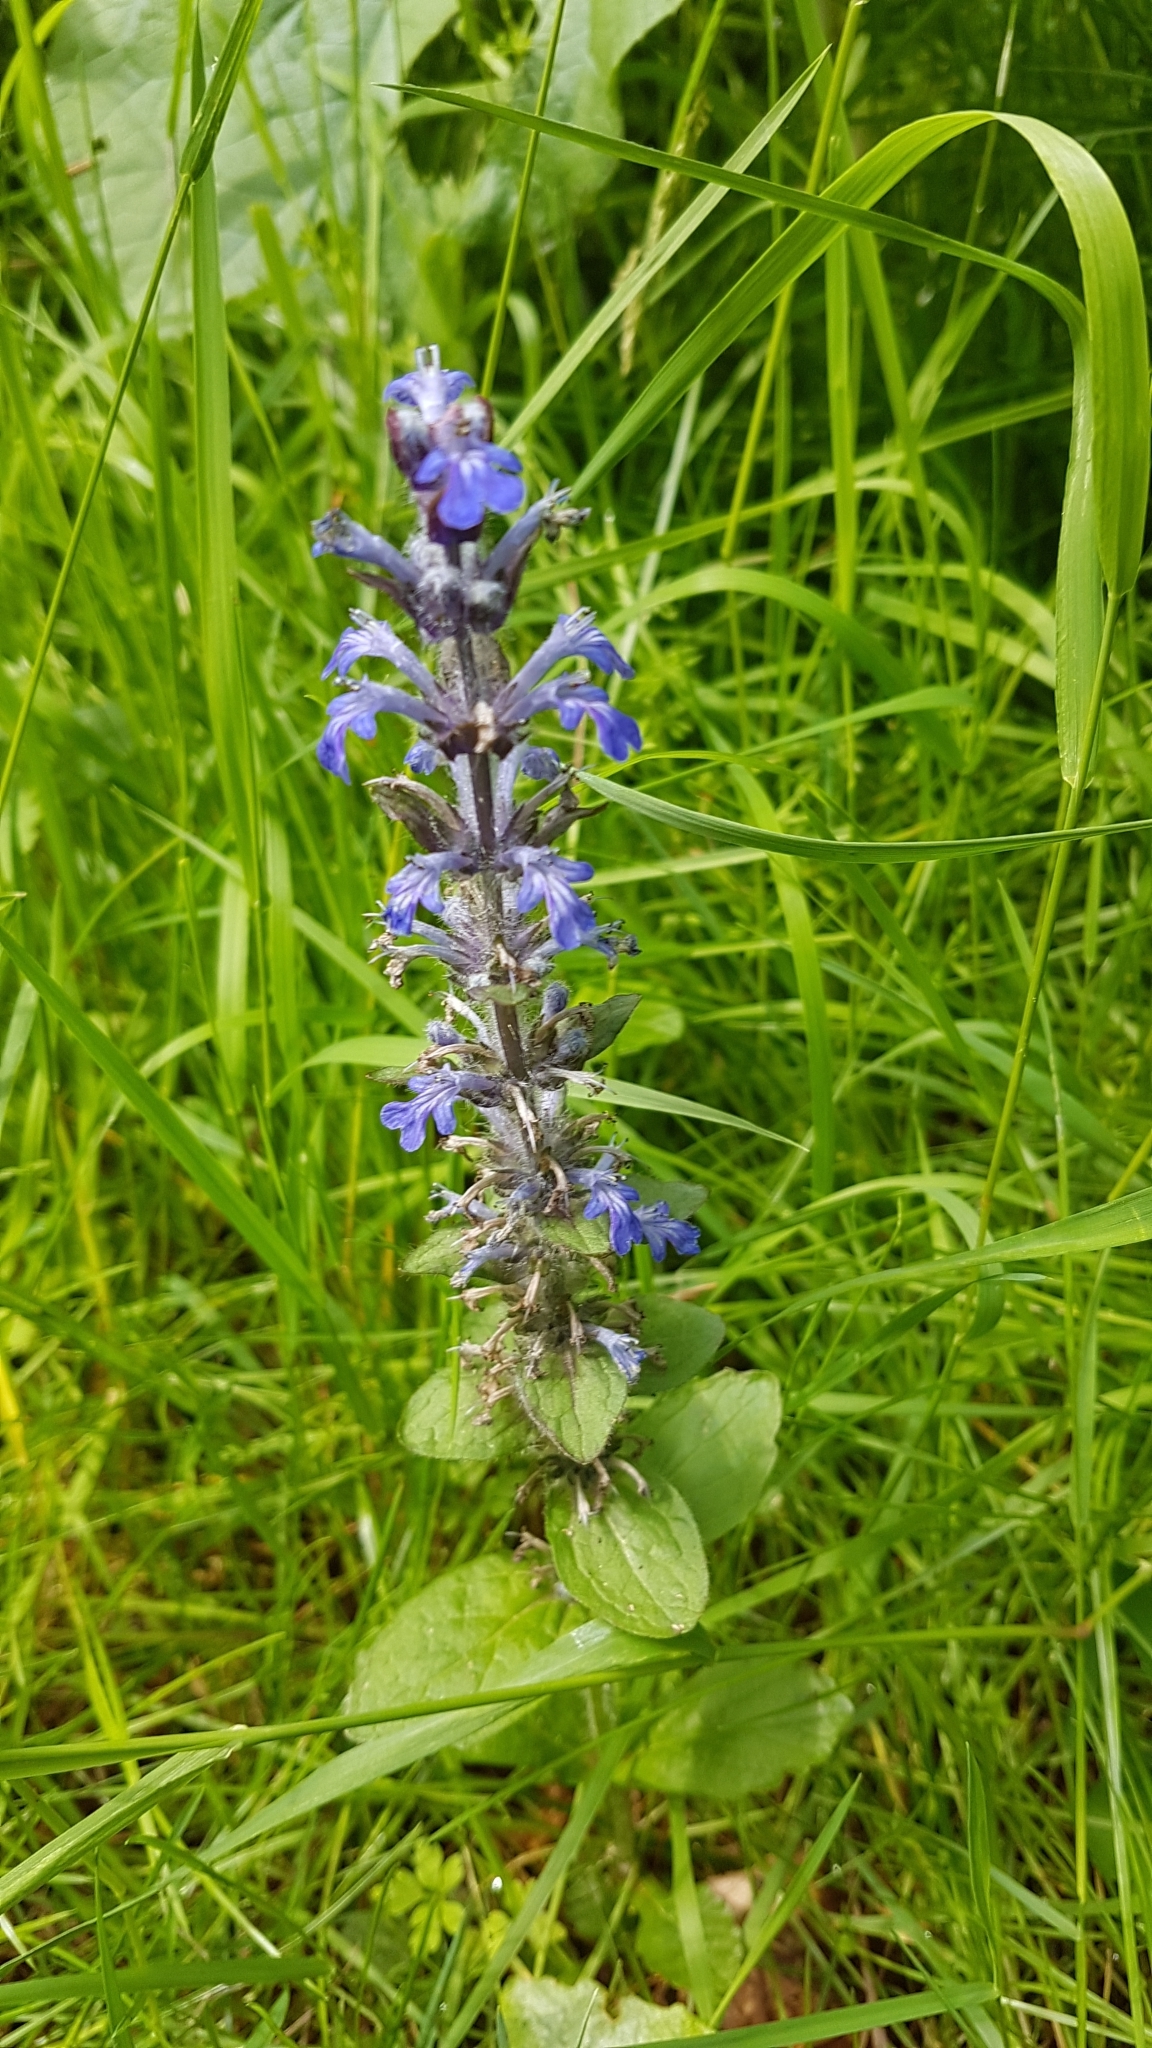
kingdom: Plantae
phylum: Tracheophyta
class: Magnoliopsida
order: Lamiales
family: Lamiaceae
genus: Ajuga
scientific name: Ajuga reptans
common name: Bugle
